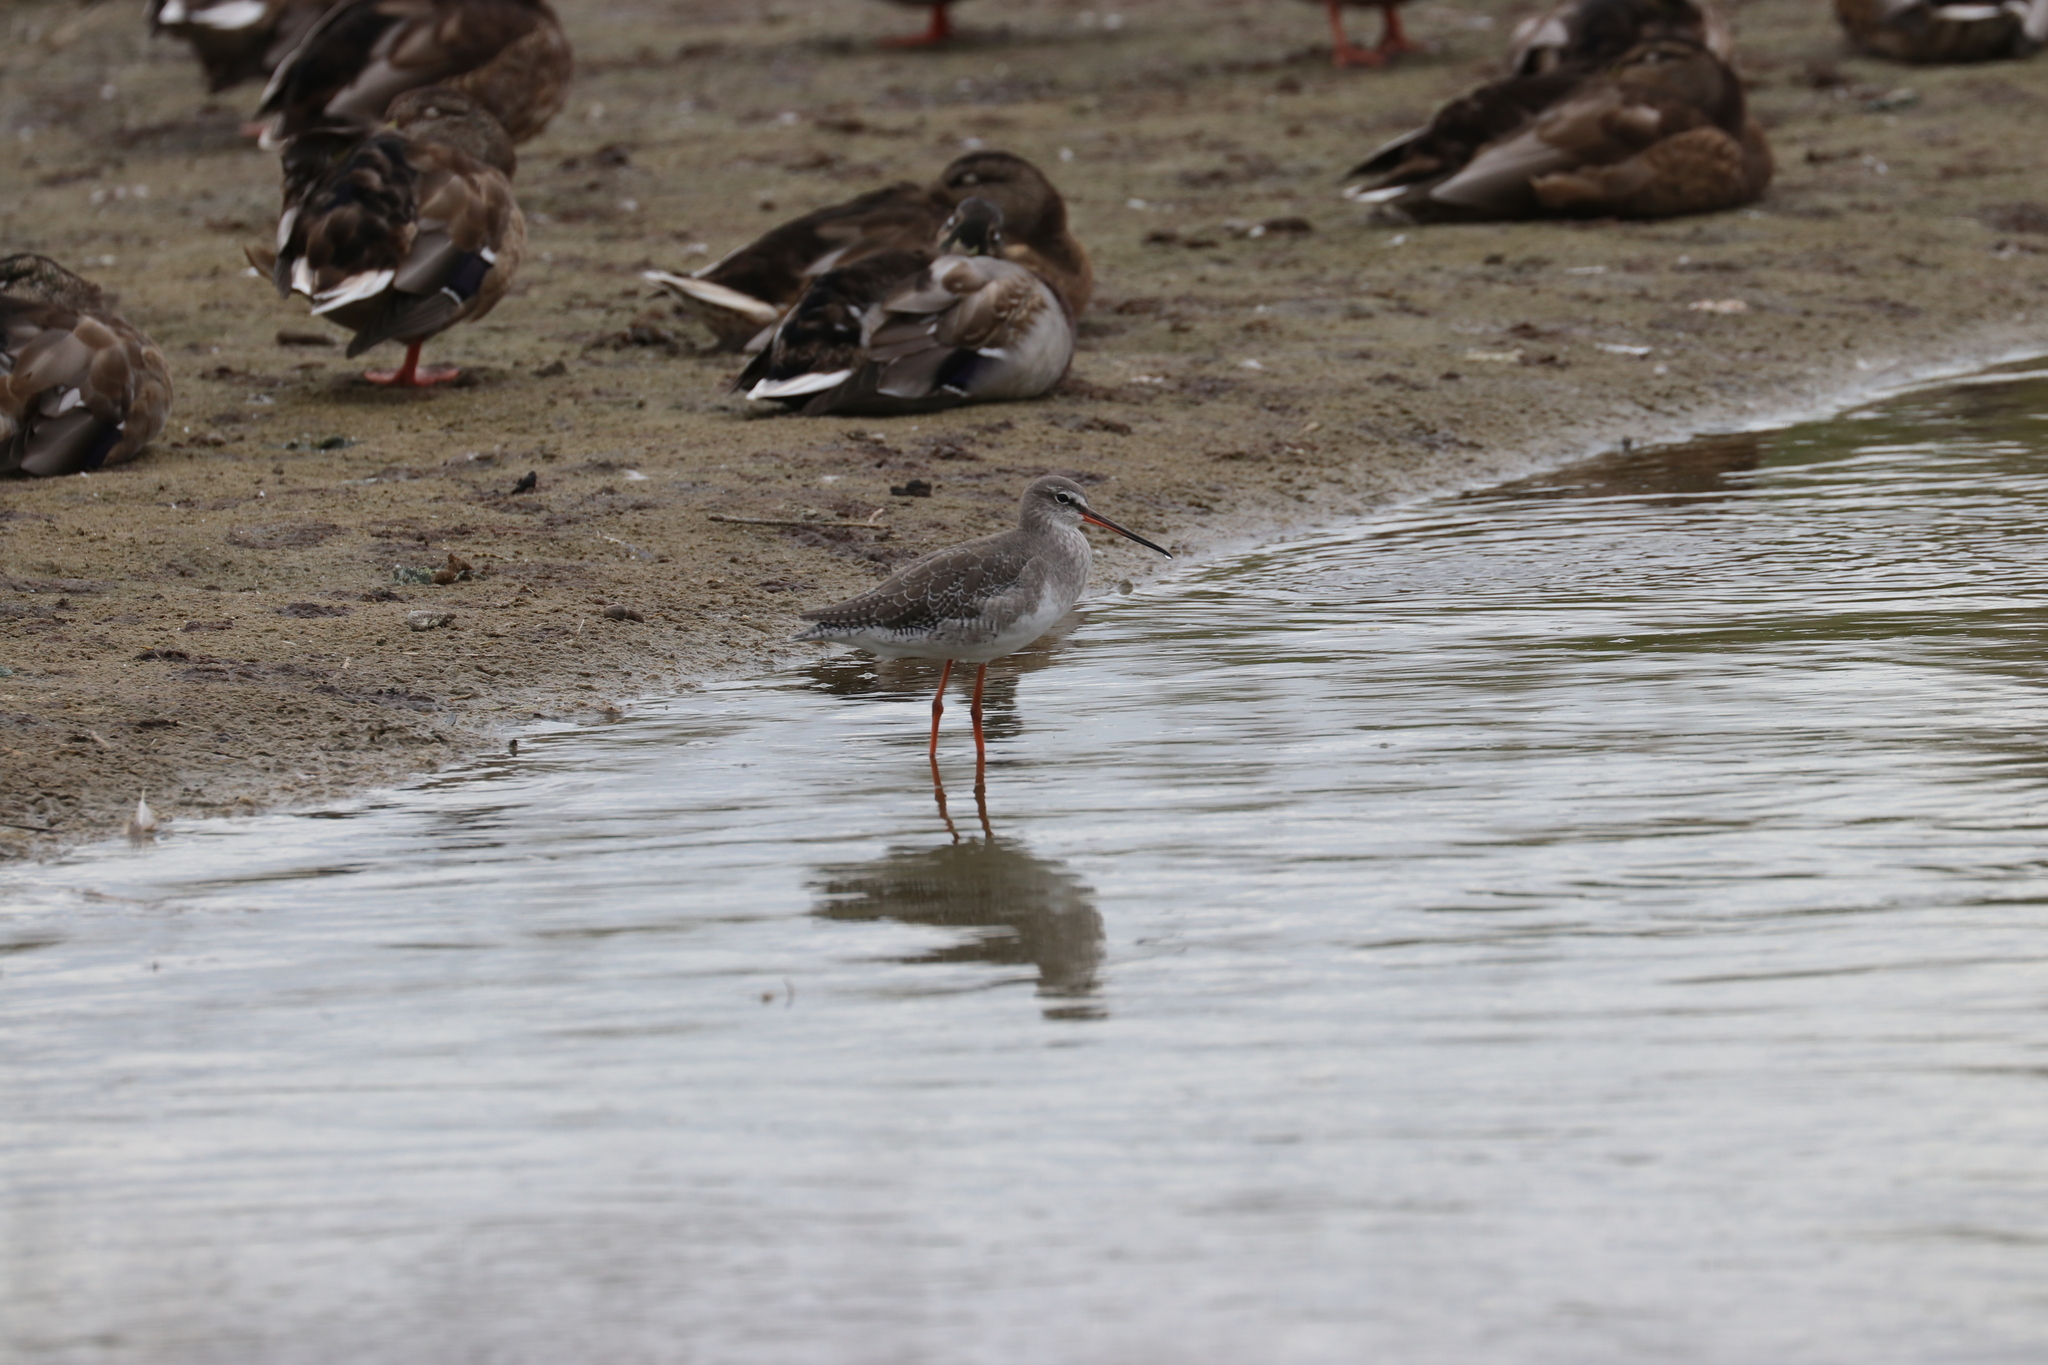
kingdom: Animalia
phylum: Chordata
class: Aves
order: Charadriiformes
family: Scolopacidae
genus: Tringa
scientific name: Tringa erythropus
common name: Spotted redshank
